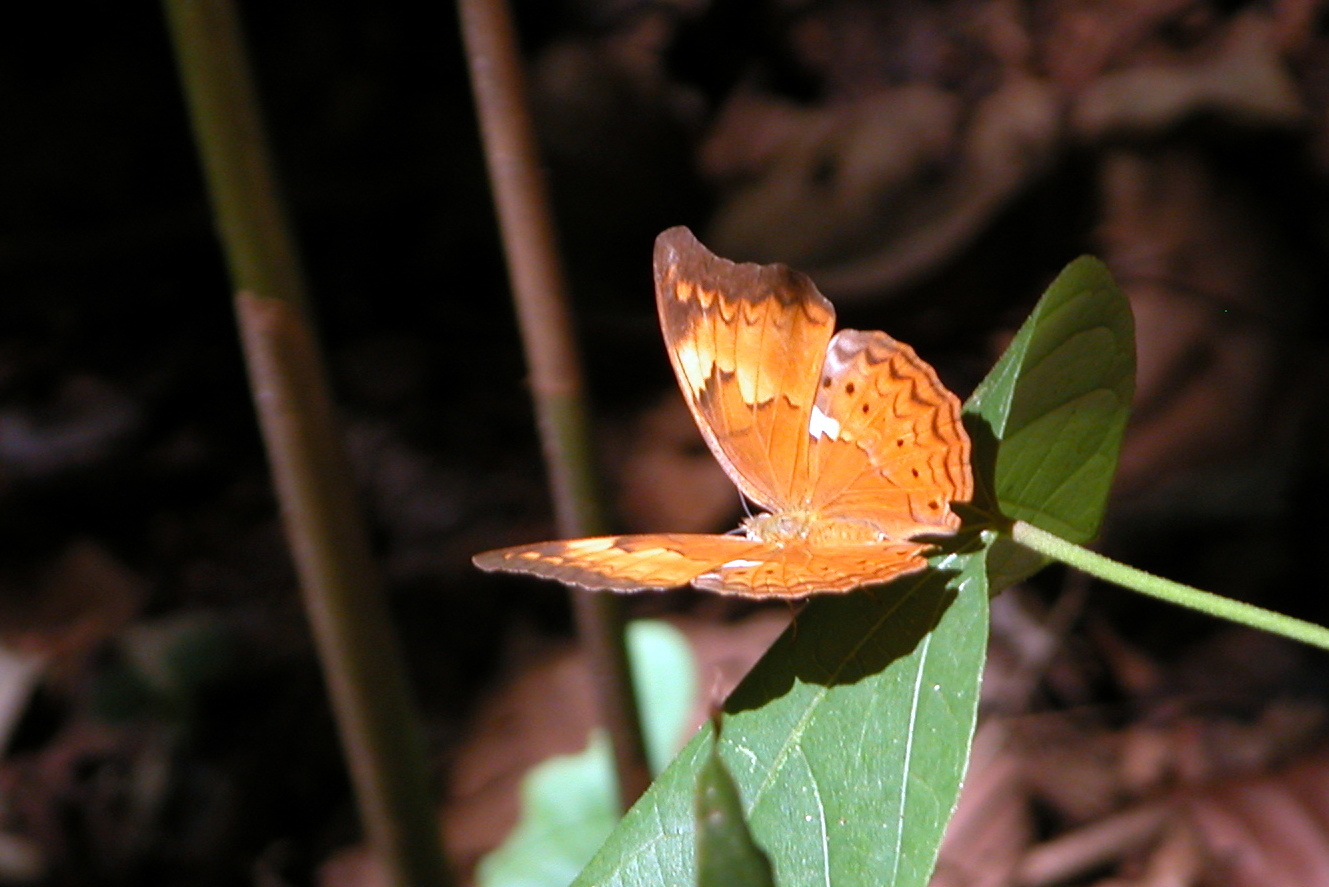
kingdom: Animalia
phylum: Arthropoda
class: Insecta
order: Lepidoptera
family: Nymphalidae
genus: Cirrochroa
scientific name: Cirrochroa thais
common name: Tamil yeoman
